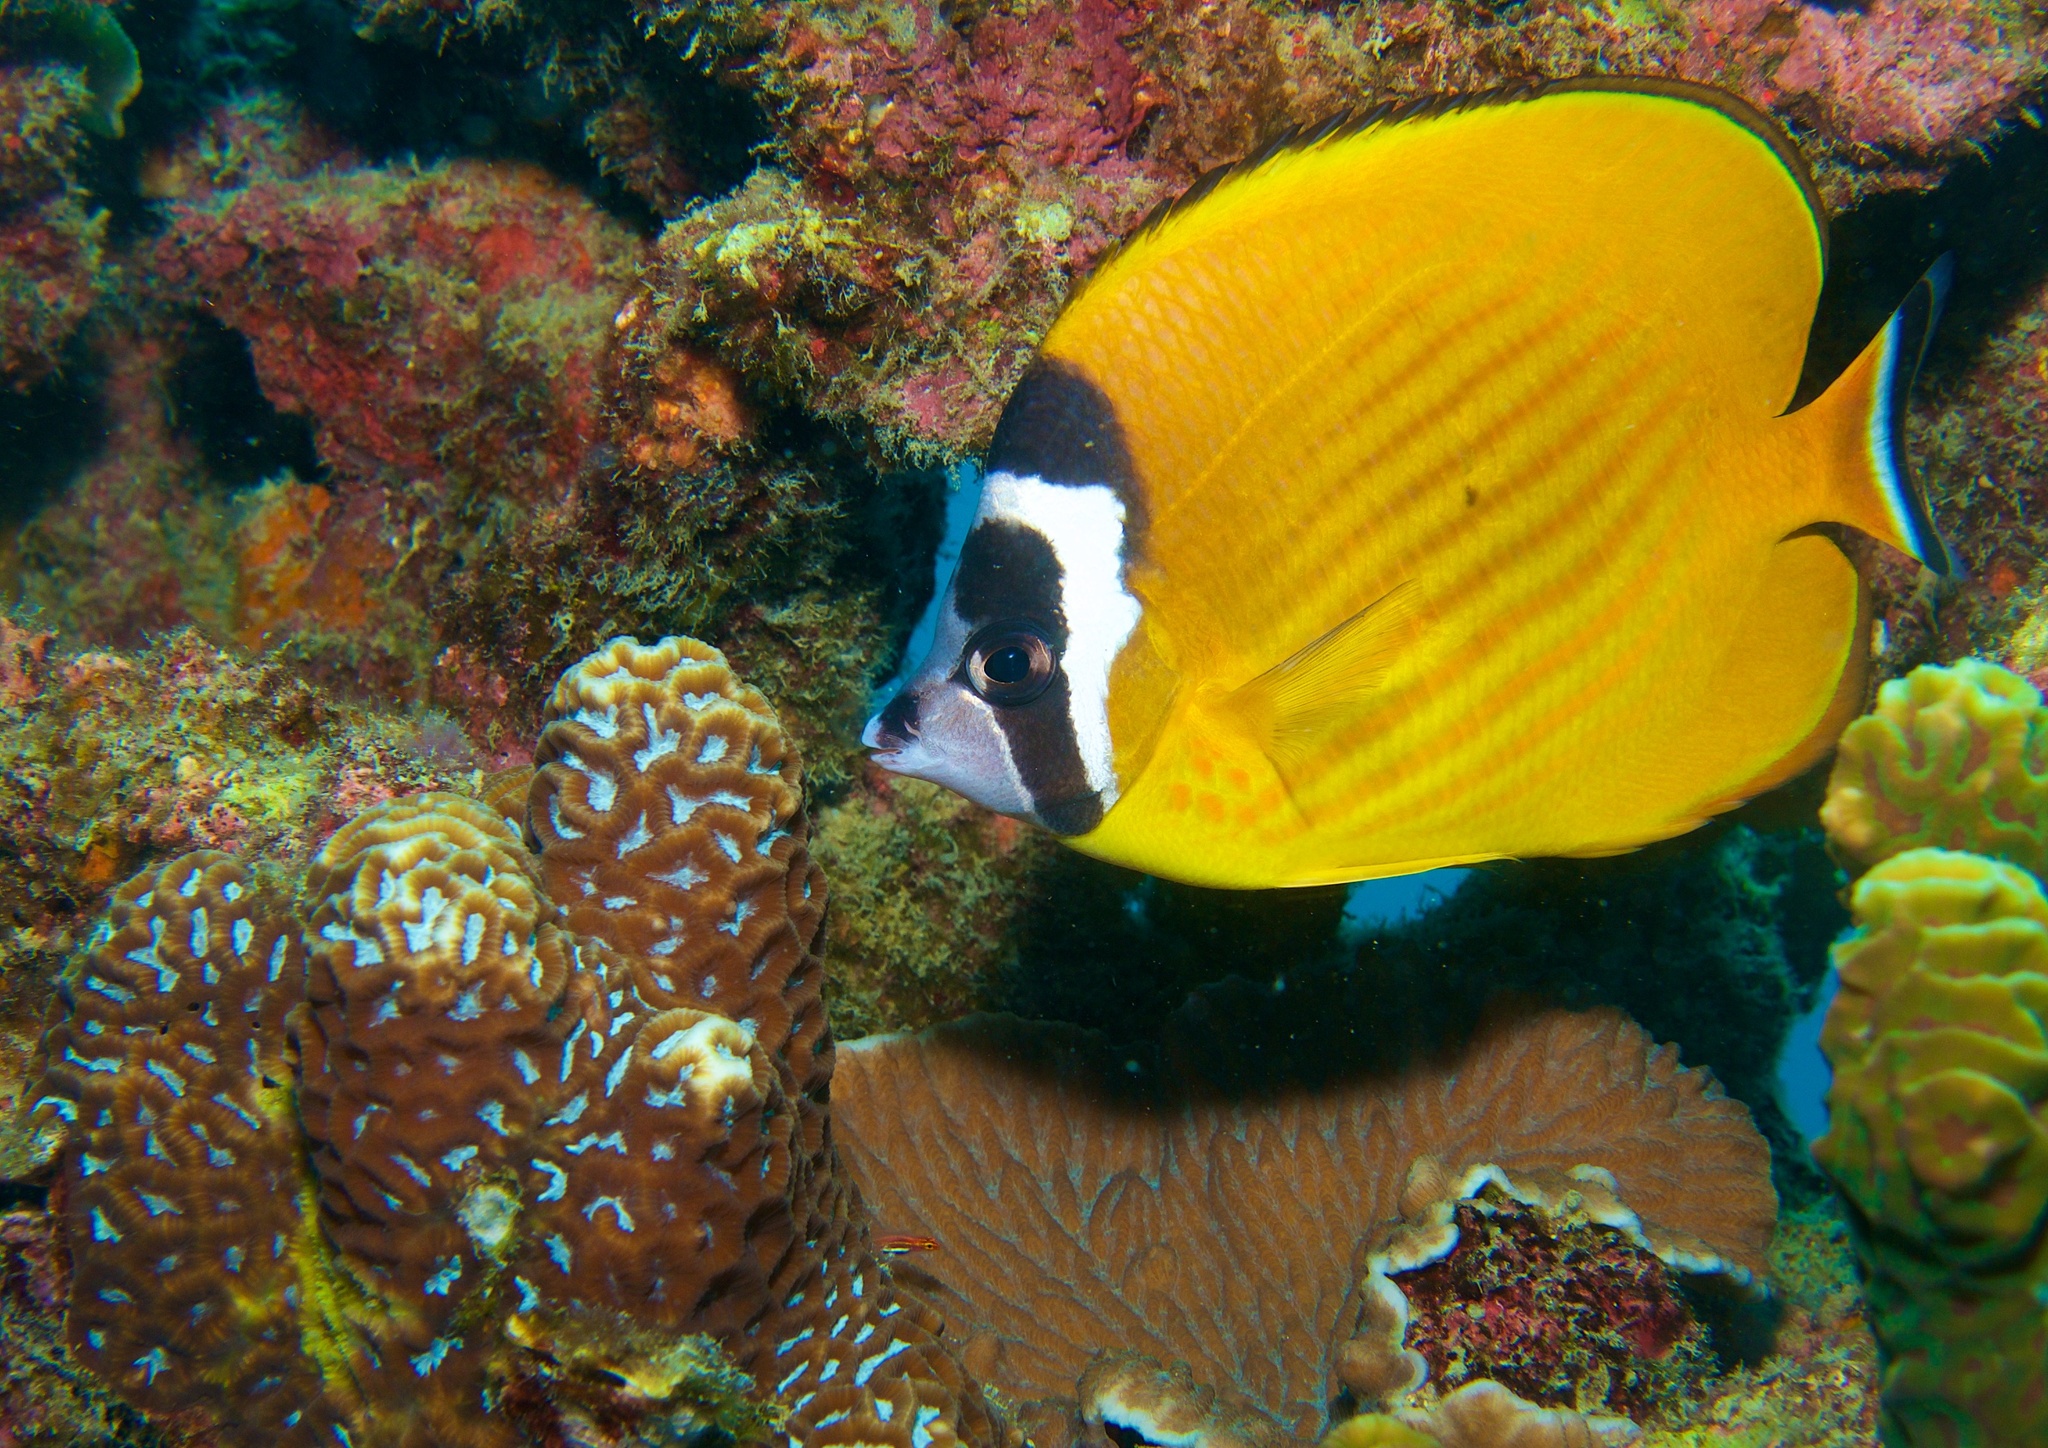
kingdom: Animalia
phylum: Chordata
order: Perciformes
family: Chaetodontidae
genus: Chaetodon
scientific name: Chaetodon wiebeli
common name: Butterflyfish
